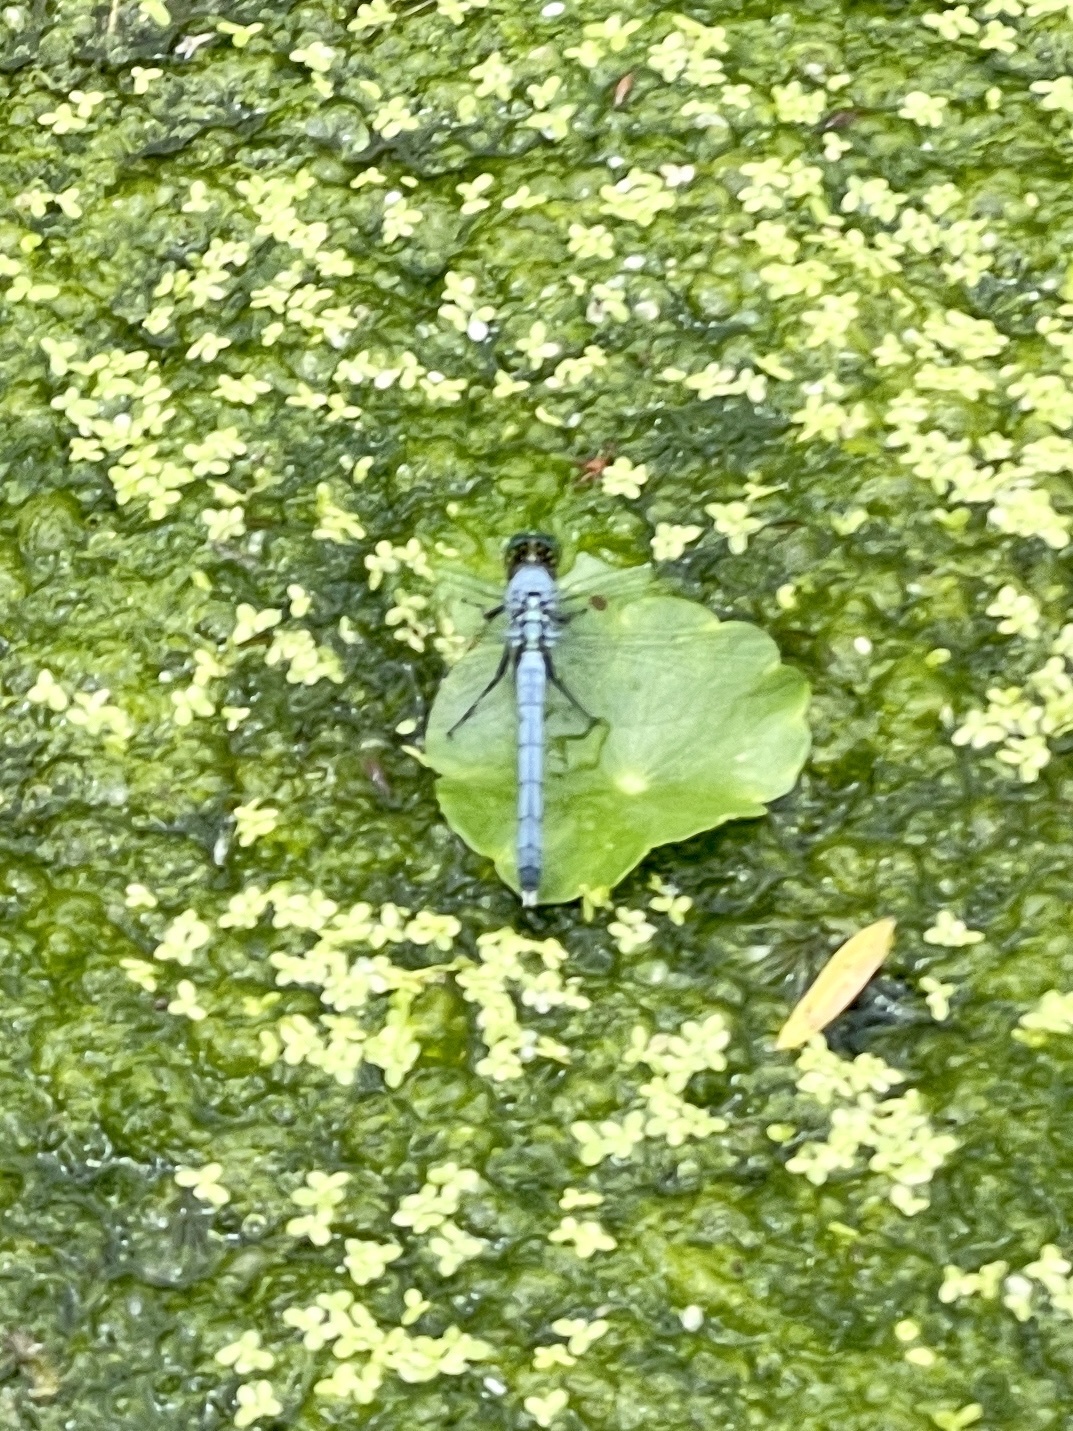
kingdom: Animalia
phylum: Arthropoda
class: Insecta
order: Odonata
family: Libellulidae
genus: Erythemis
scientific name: Erythemis simplicicollis
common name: Eastern pondhawk
